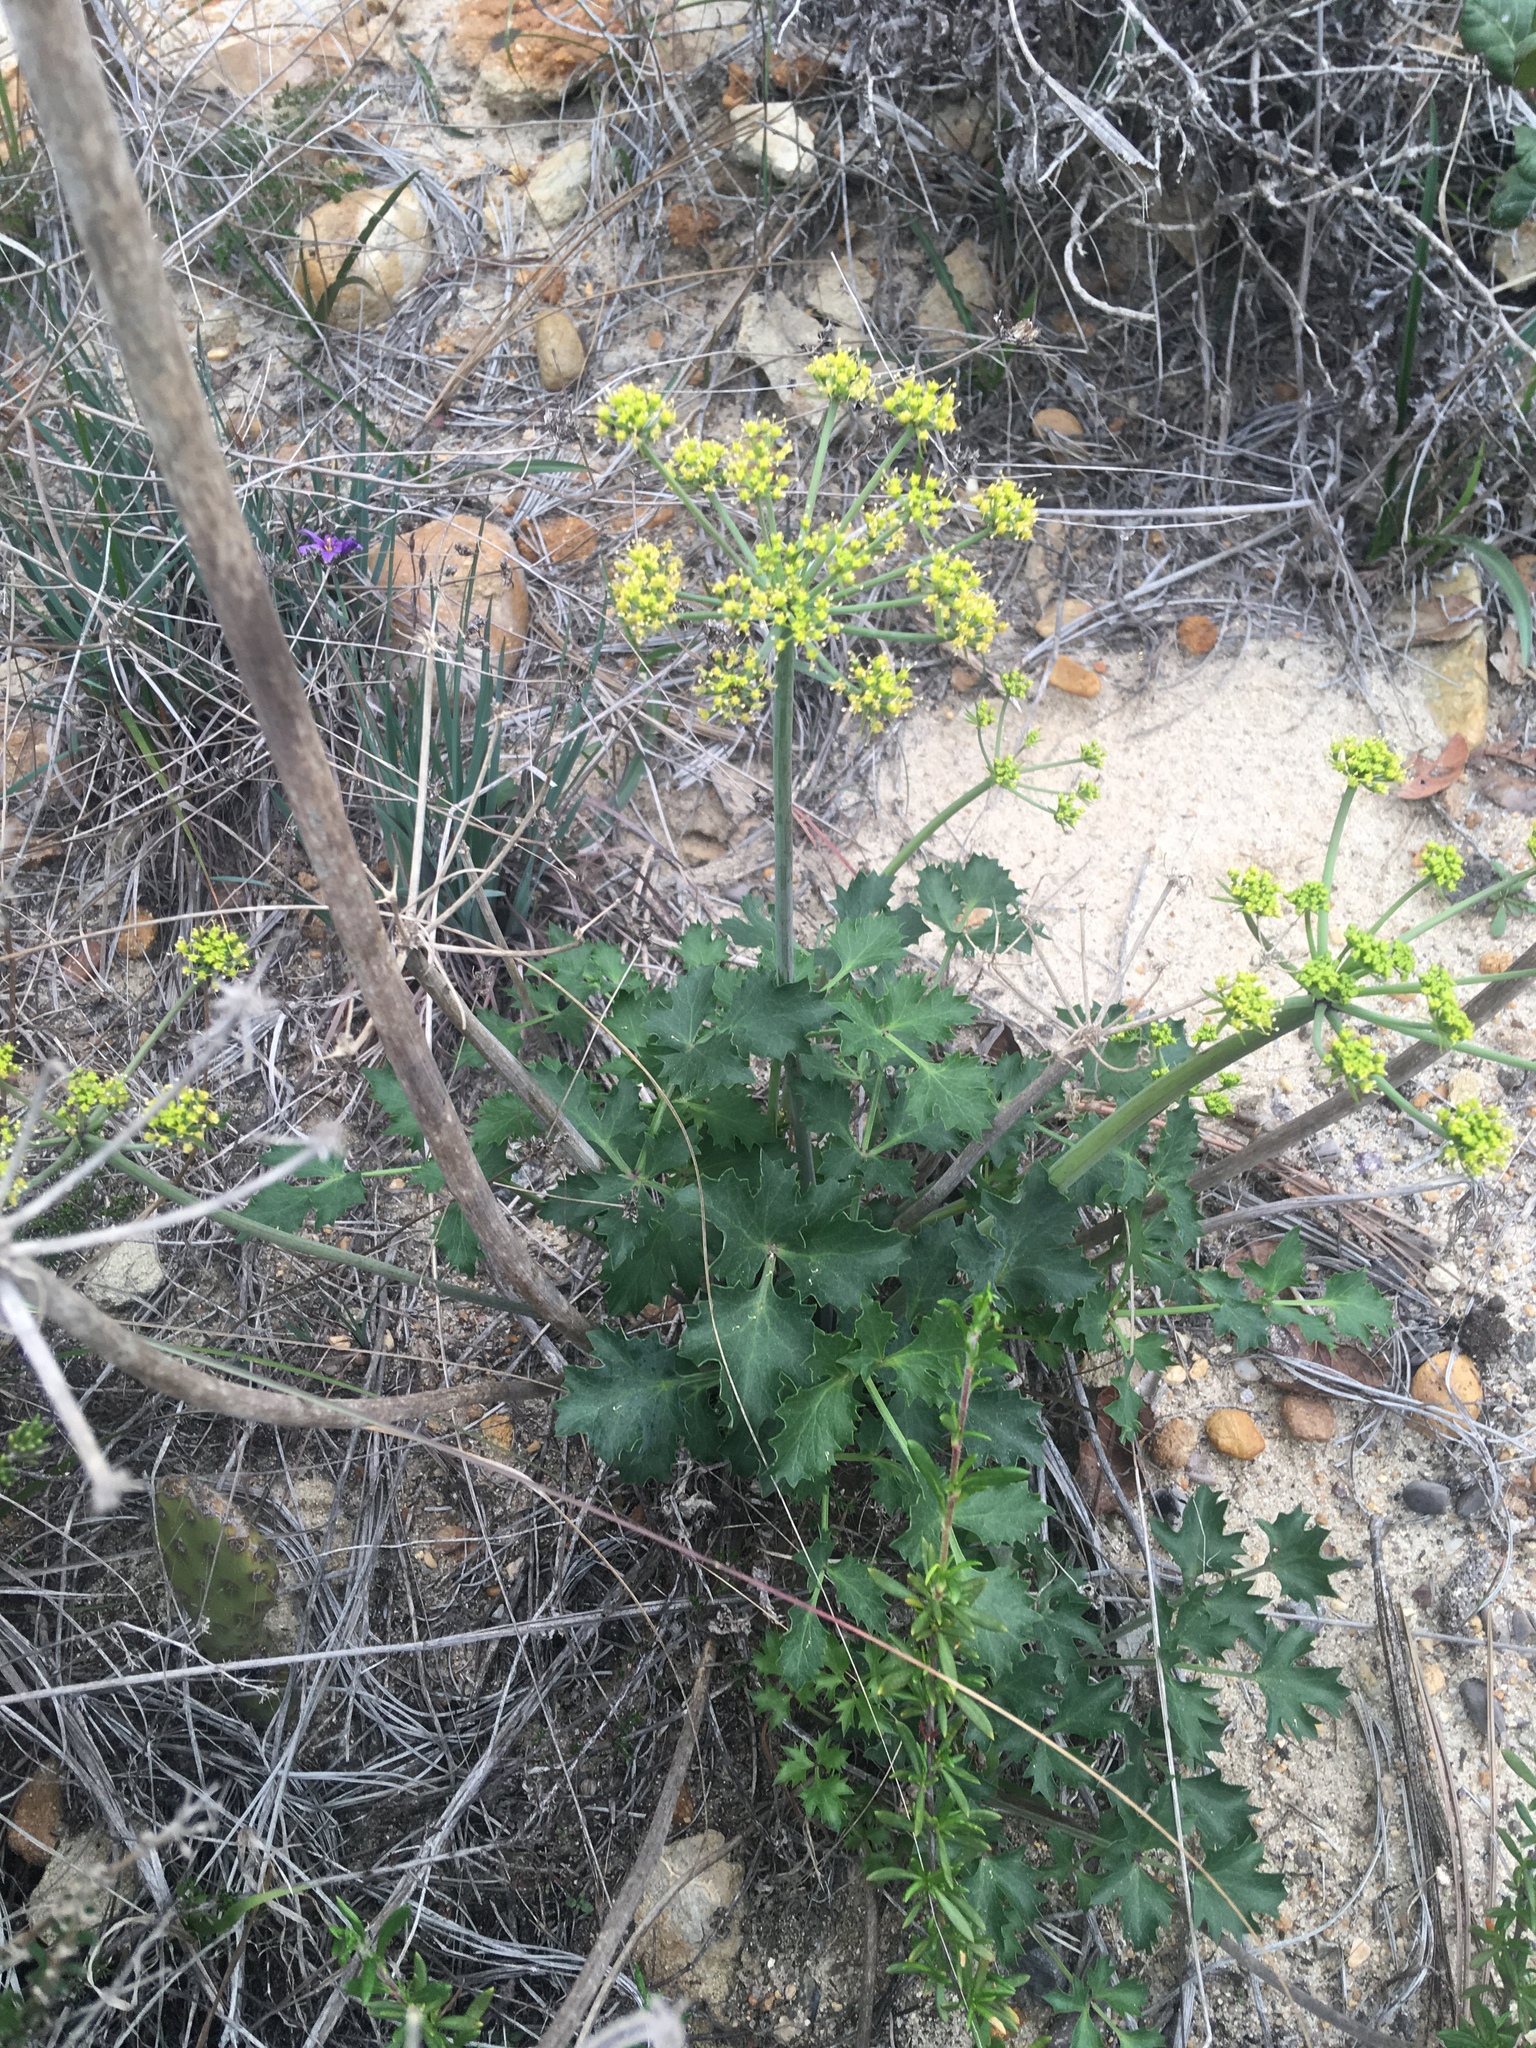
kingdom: Plantae
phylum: Tracheophyta
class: Magnoliopsida
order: Apiales
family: Apiaceae
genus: Lomatium
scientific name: Lomatium lucidum
